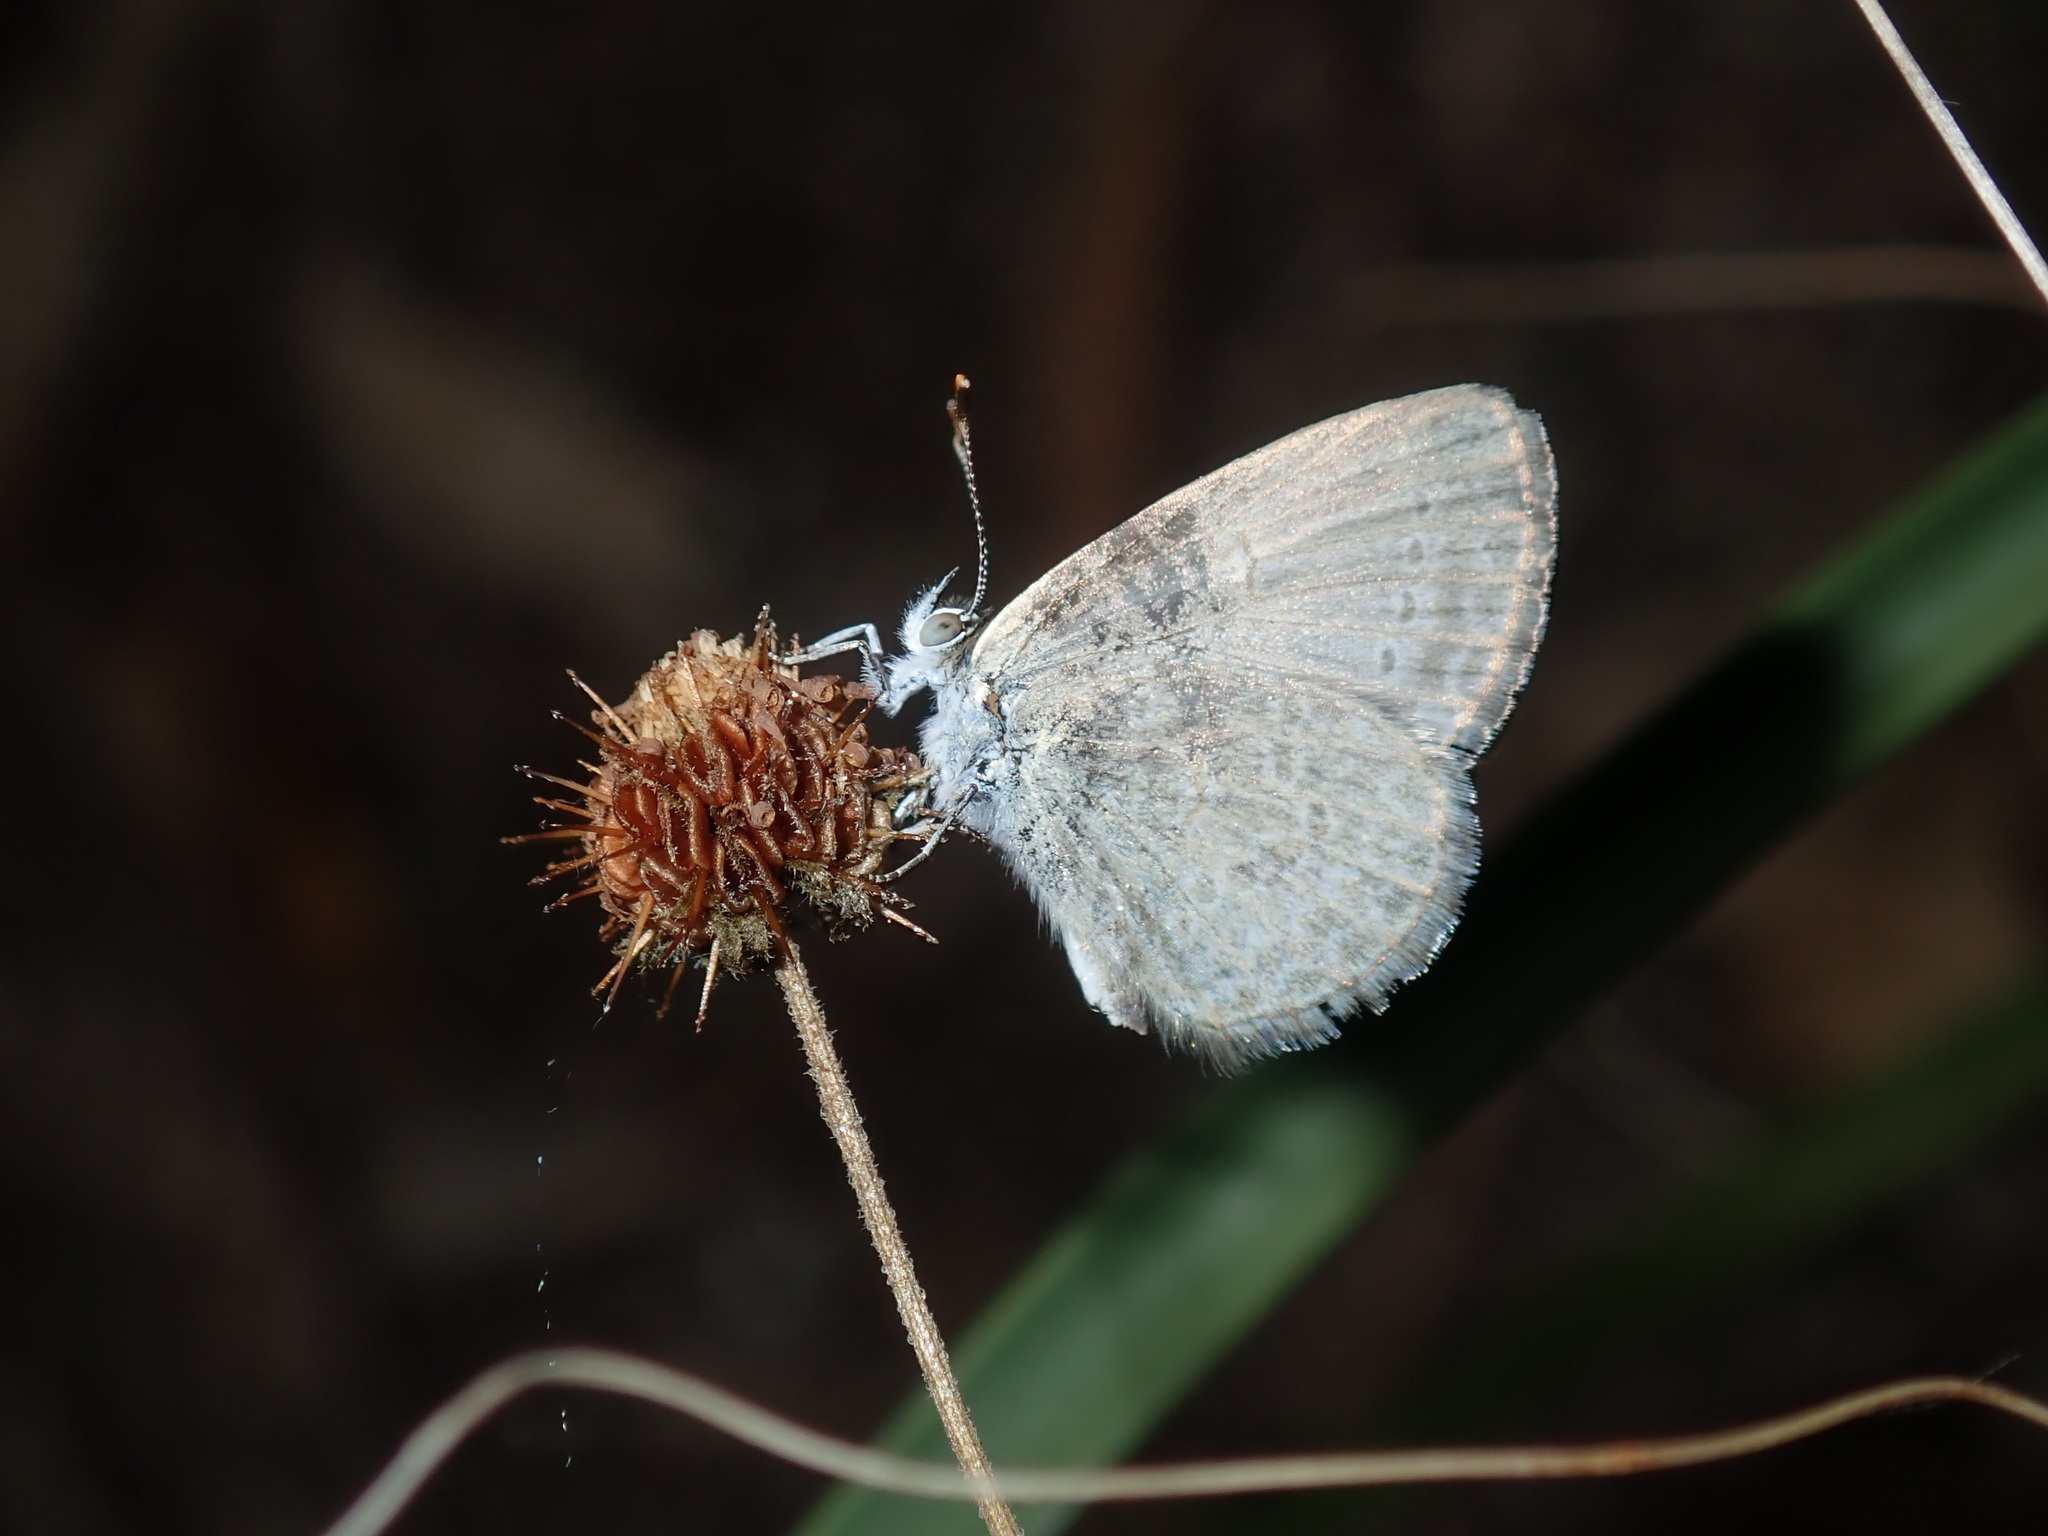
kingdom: Animalia
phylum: Arthropoda
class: Insecta
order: Lepidoptera
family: Lycaenidae
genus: Zizina
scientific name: Zizina labradus
